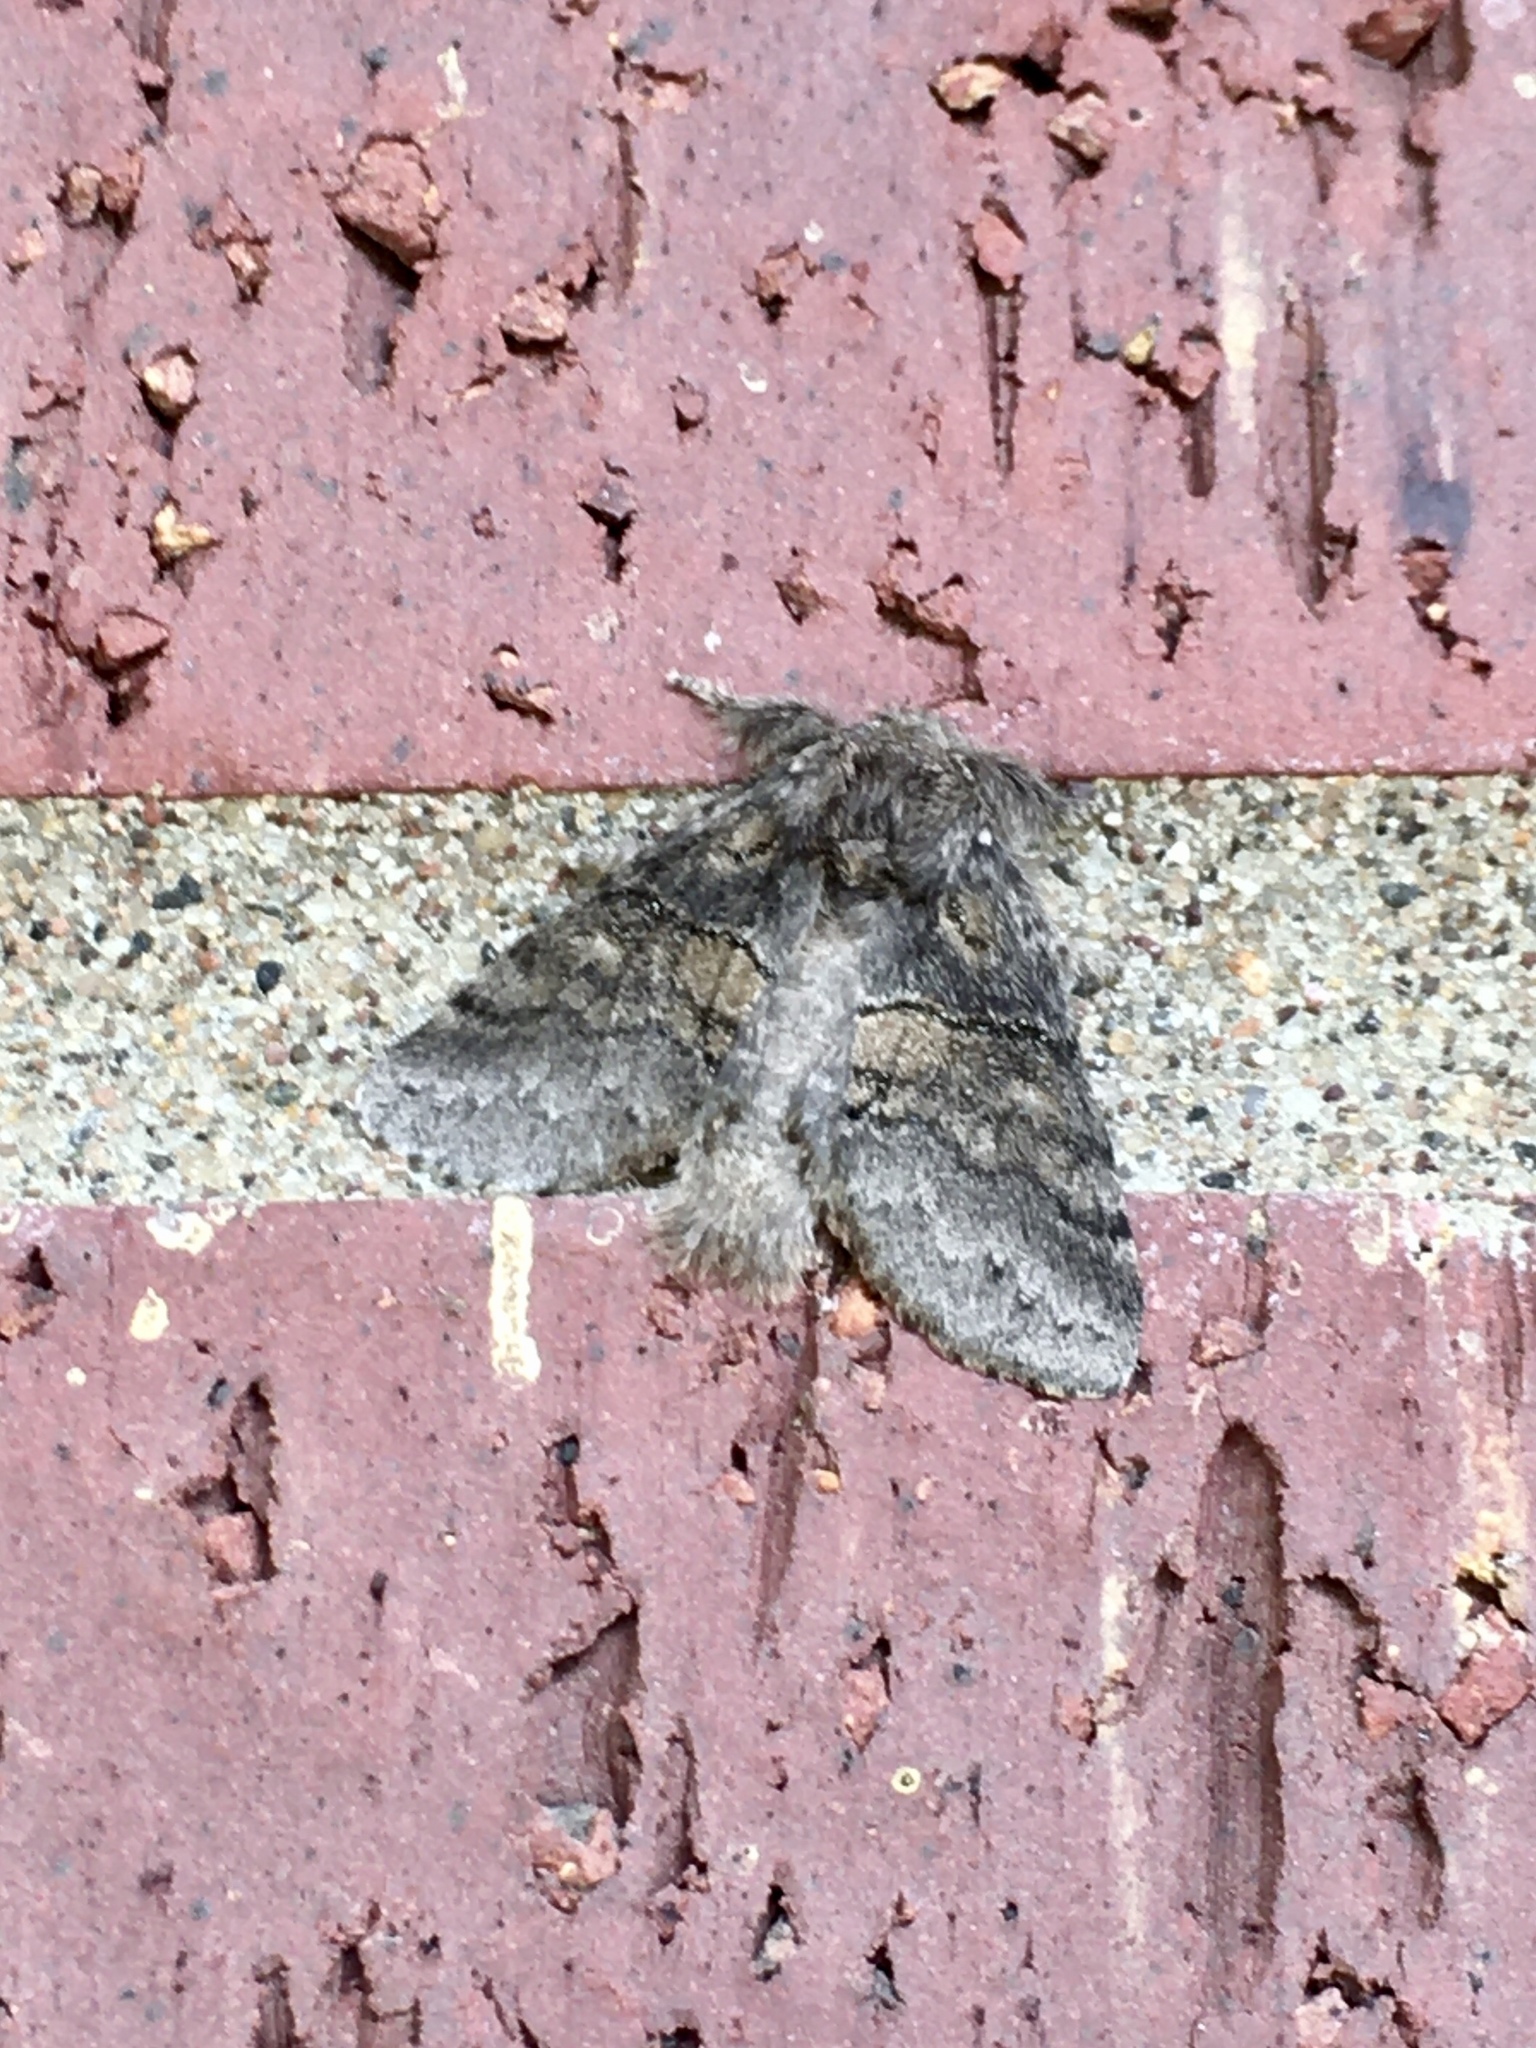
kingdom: Animalia
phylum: Arthropoda
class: Insecta
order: Lepidoptera
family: Notodontidae
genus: Gluphisia
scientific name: Gluphisia septentrionis
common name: Common gluphisia
